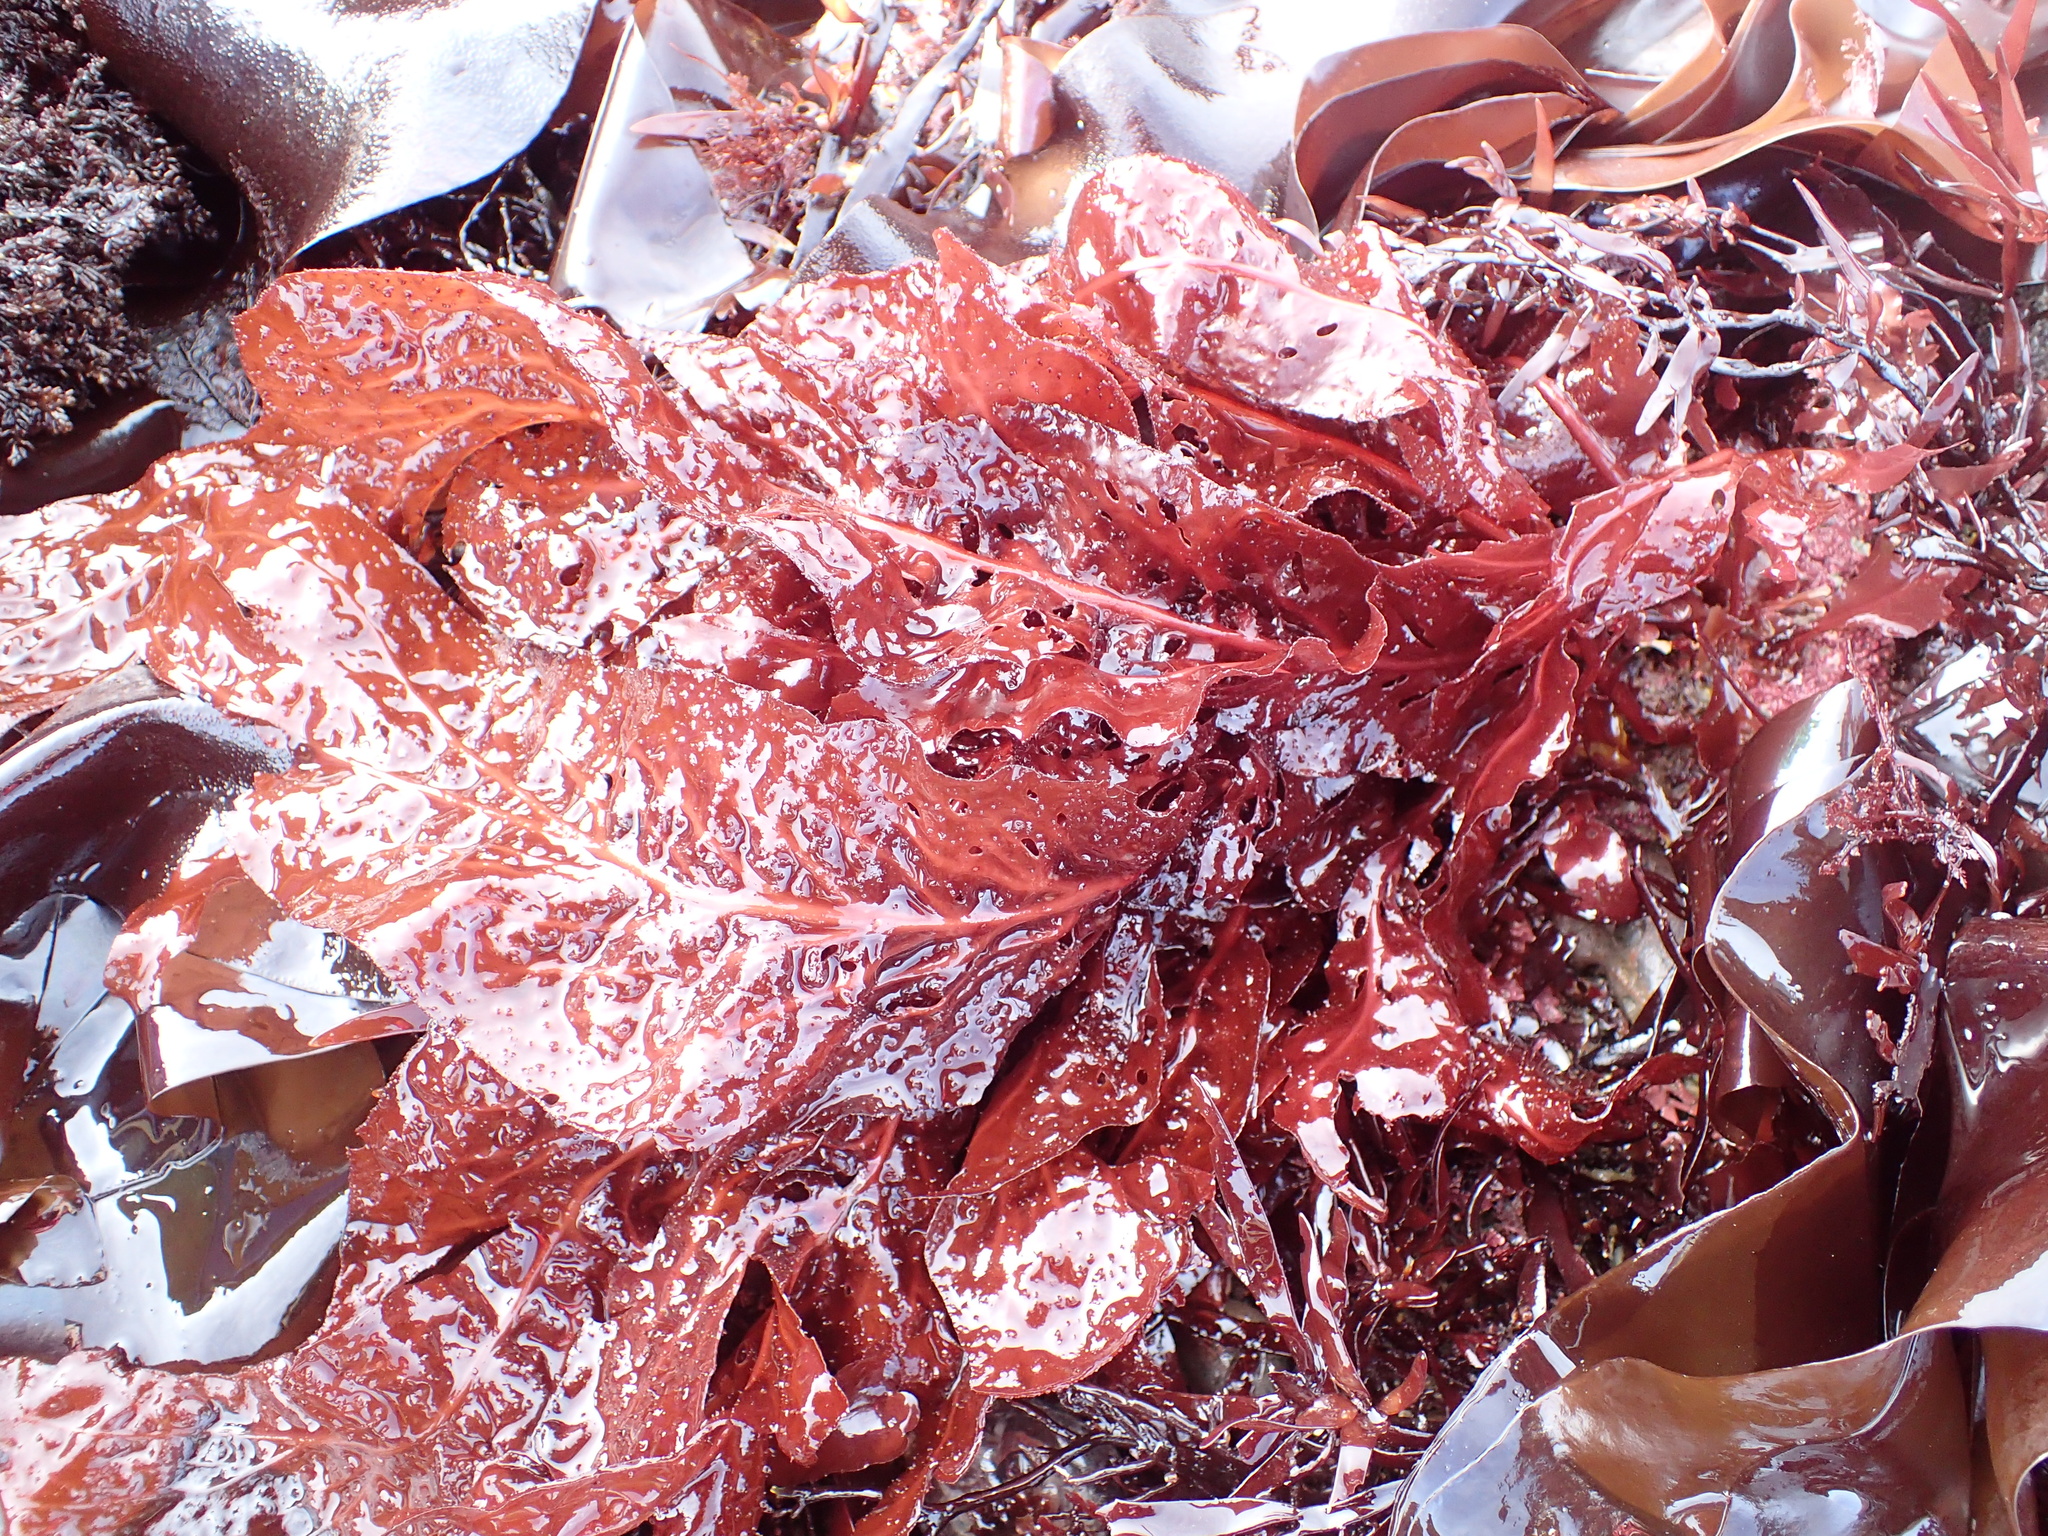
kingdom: Plantae
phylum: Rhodophyta
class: Florideophyceae
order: Gigartinales
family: Kallymeniaceae
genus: Erythrophyllum
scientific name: Erythrophyllum delesserioides
